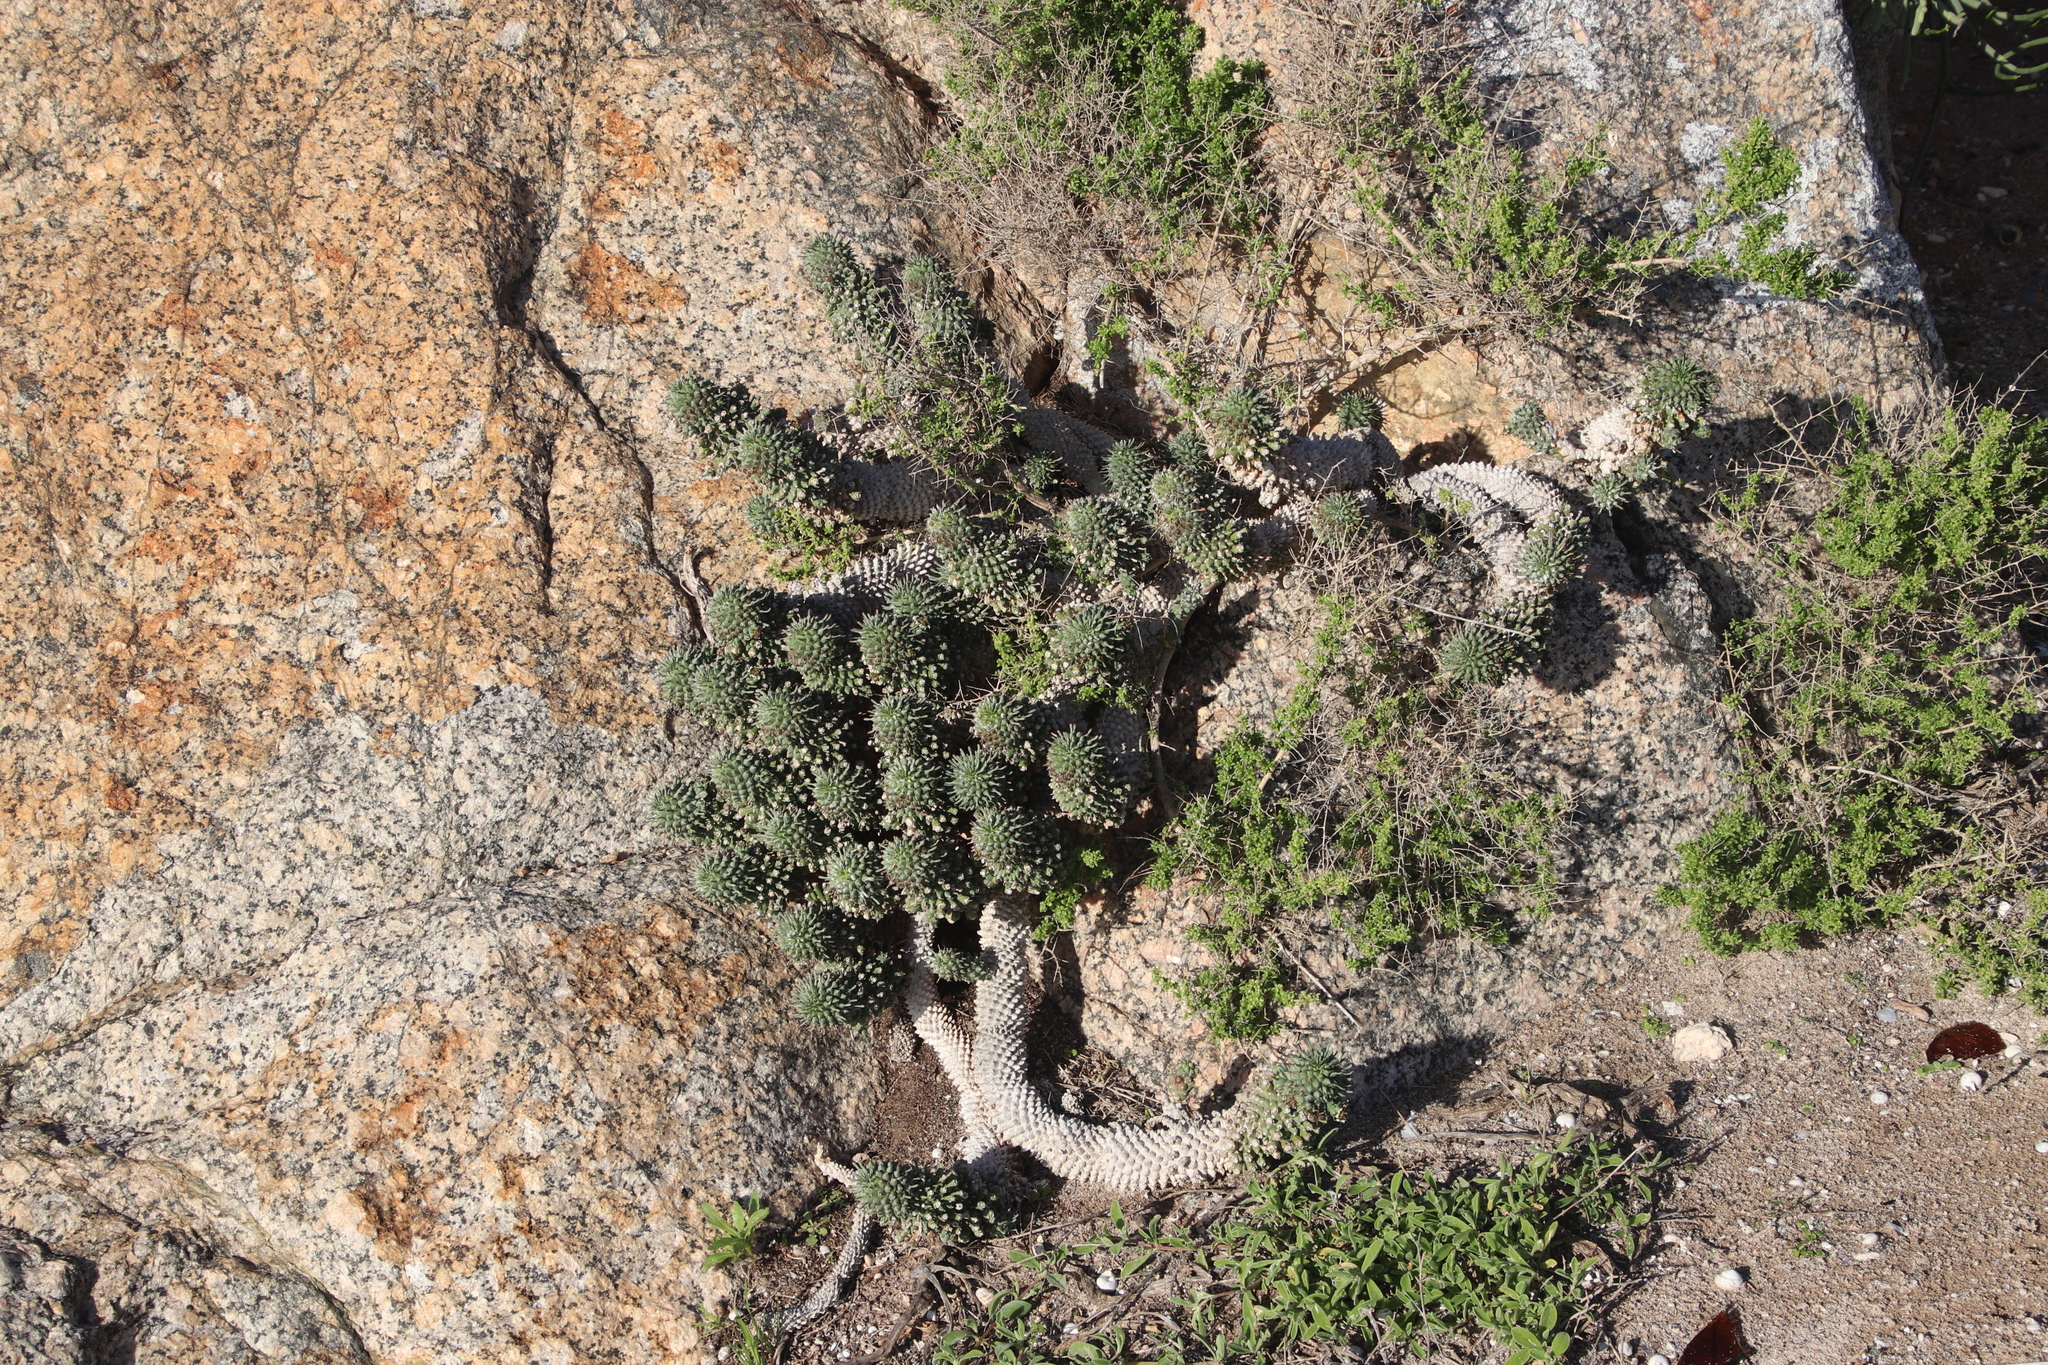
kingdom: Plantae
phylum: Tracheophyta
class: Magnoliopsida
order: Malpighiales
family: Euphorbiaceae
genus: Euphorbia
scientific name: Euphorbia caput-medusae
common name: Medusa's-head
